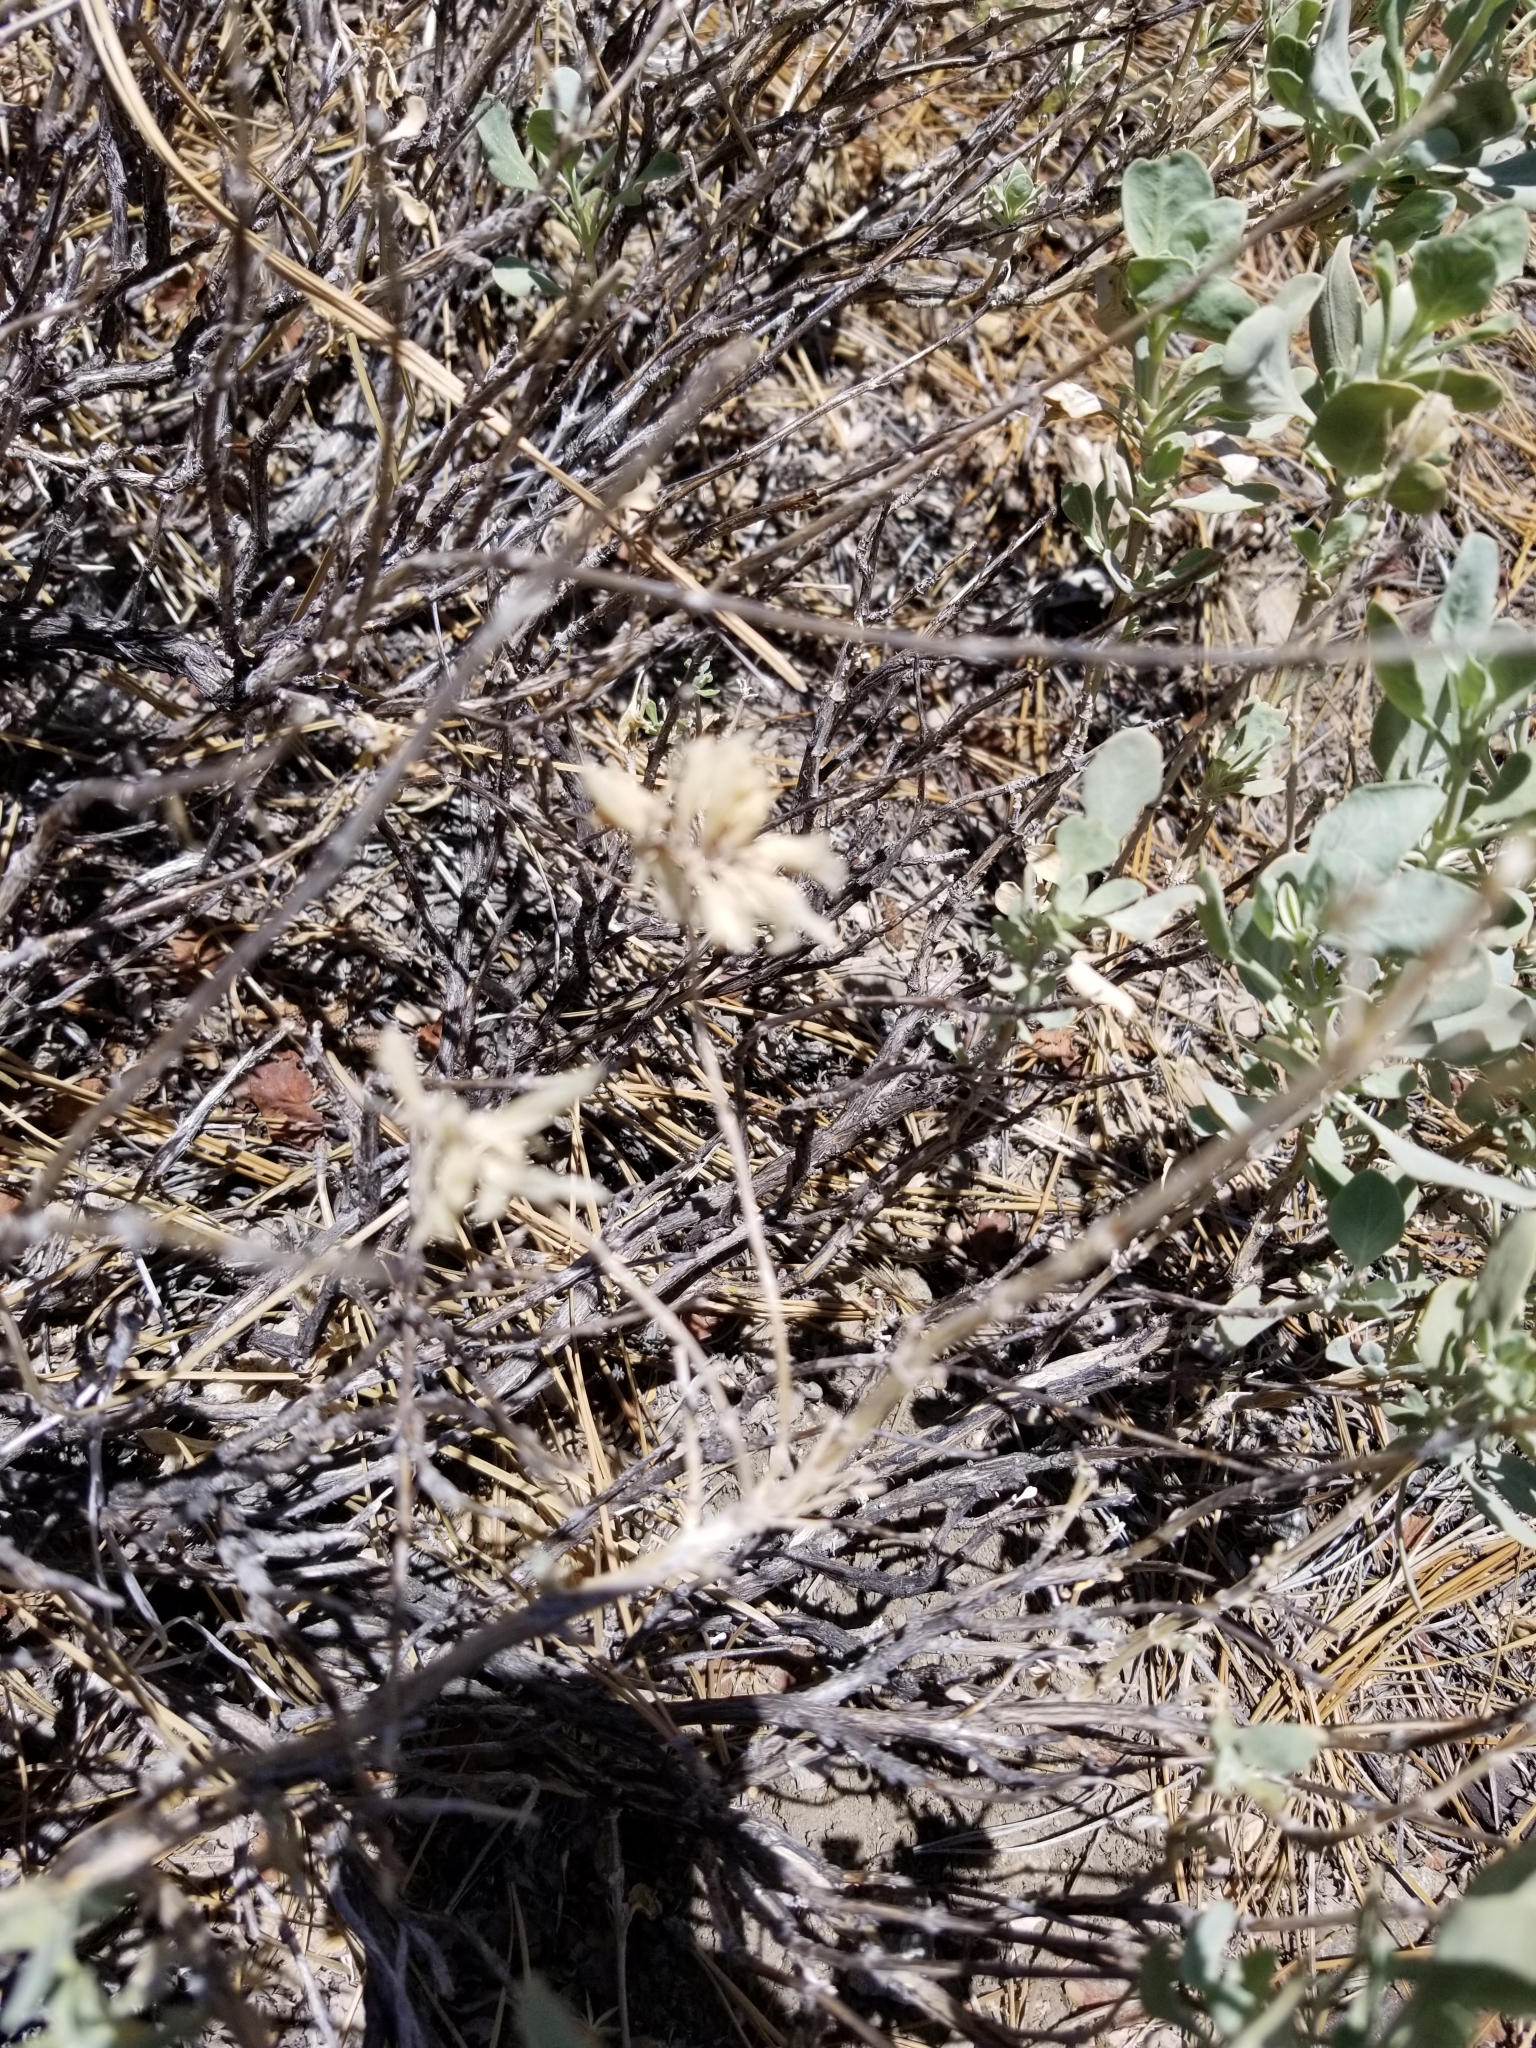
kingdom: Plantae
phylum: Tracheophyta
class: Magnoliopsida
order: Lamiales
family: Lamiaceae
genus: Salvia
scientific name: Salvia pachyphylla
